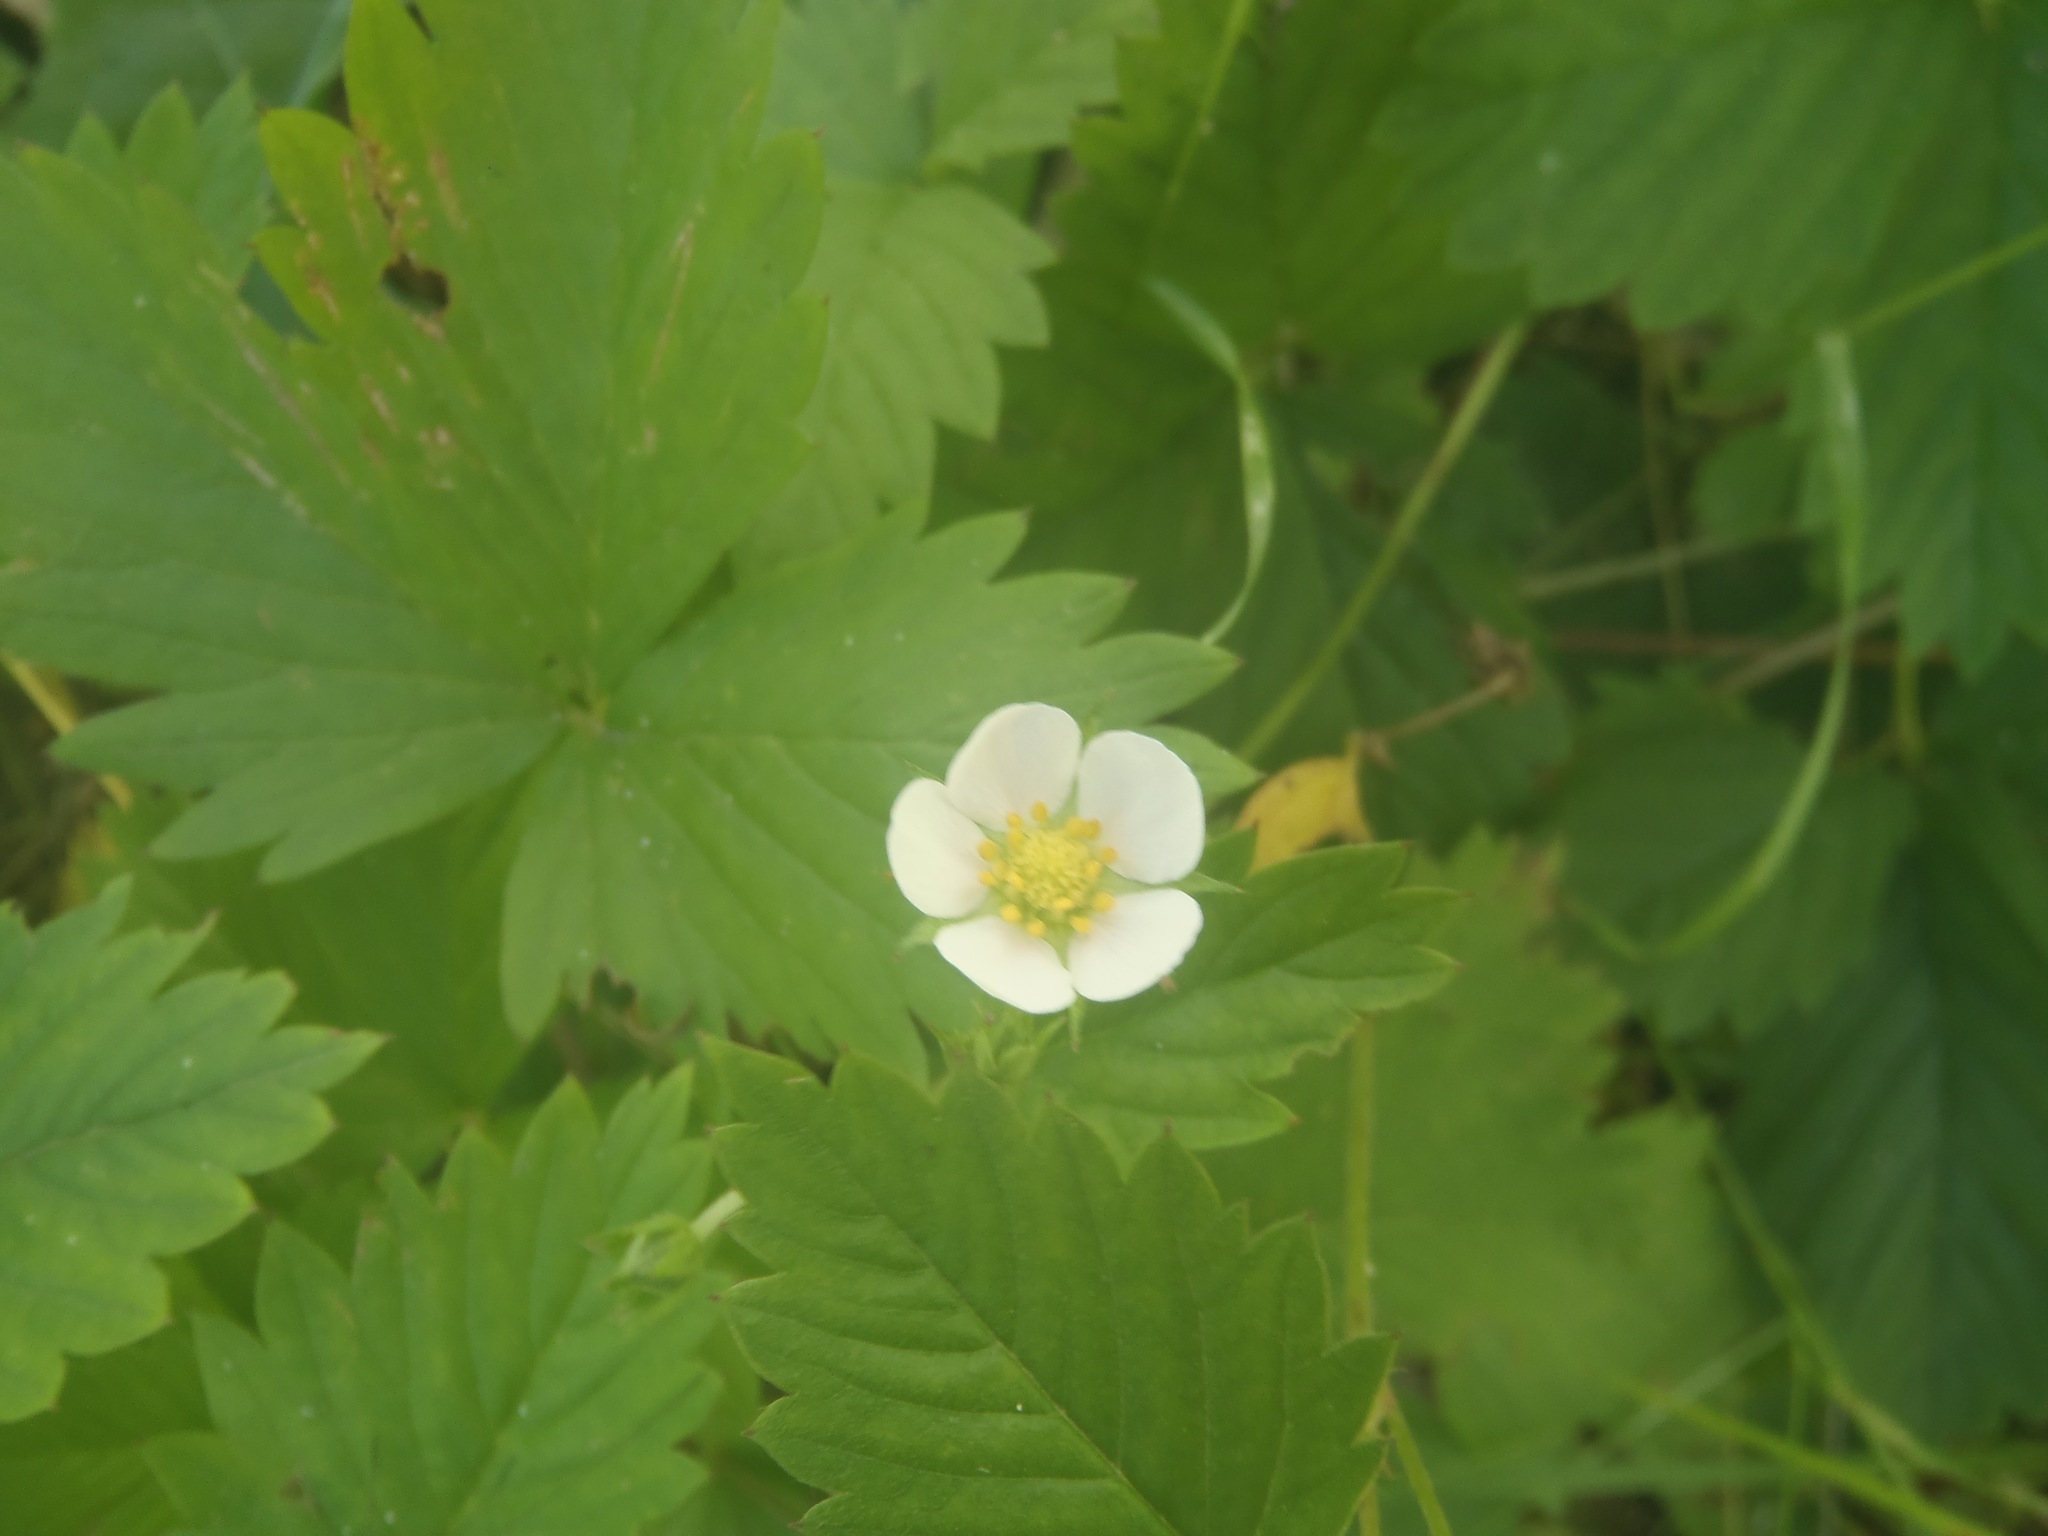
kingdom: Plantae
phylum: Tracheophyta
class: Magnoliopsida
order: Rosales
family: Rosaceae
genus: Fragaria
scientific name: Fragaria vesca
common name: Wild strawberry
